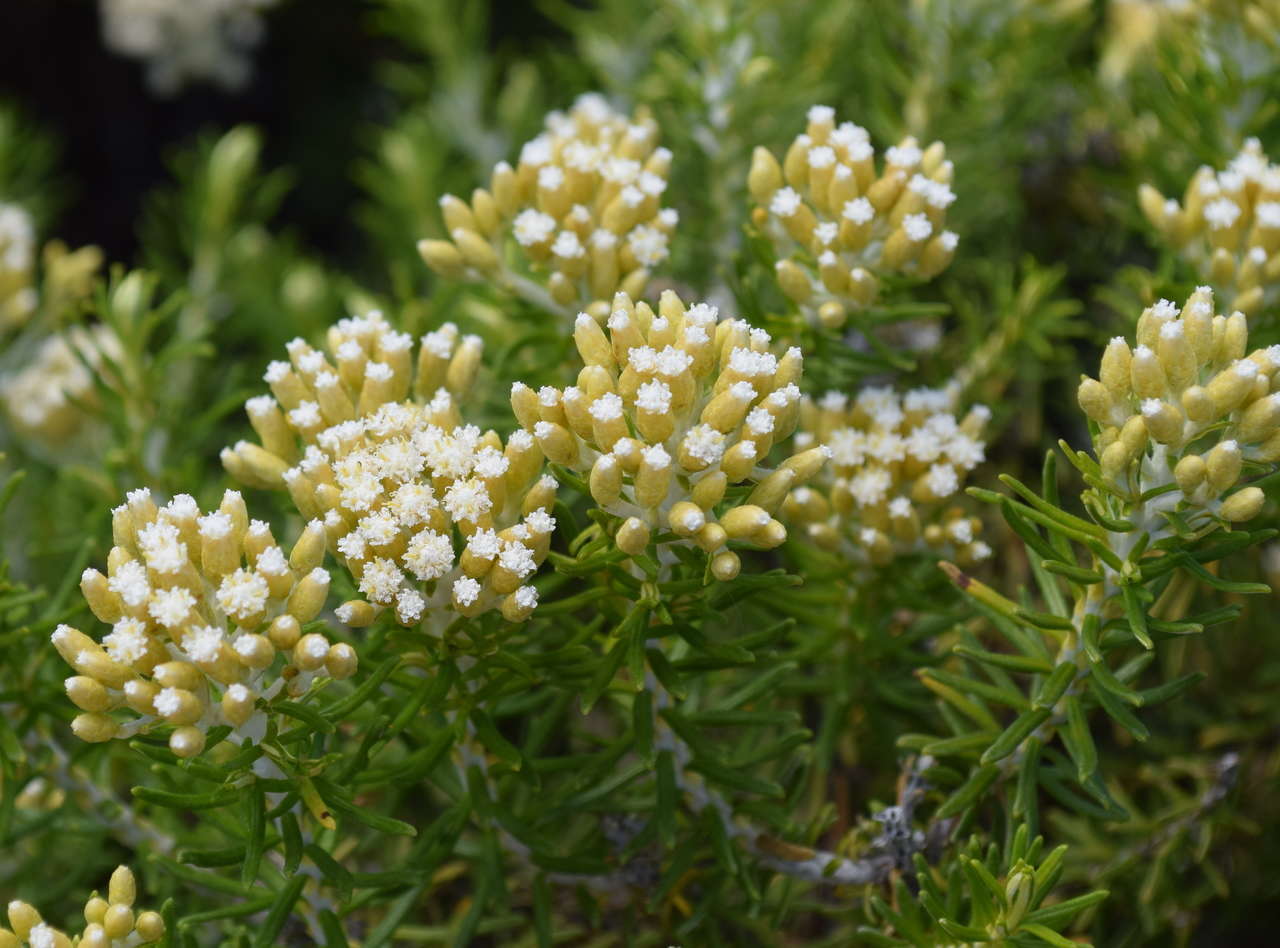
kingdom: Plantae
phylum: Tracheophyta
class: Magnoliopsida
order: Asterales
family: Asteraceae
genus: Ozothamnus
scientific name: Ozothamnus cinereus
